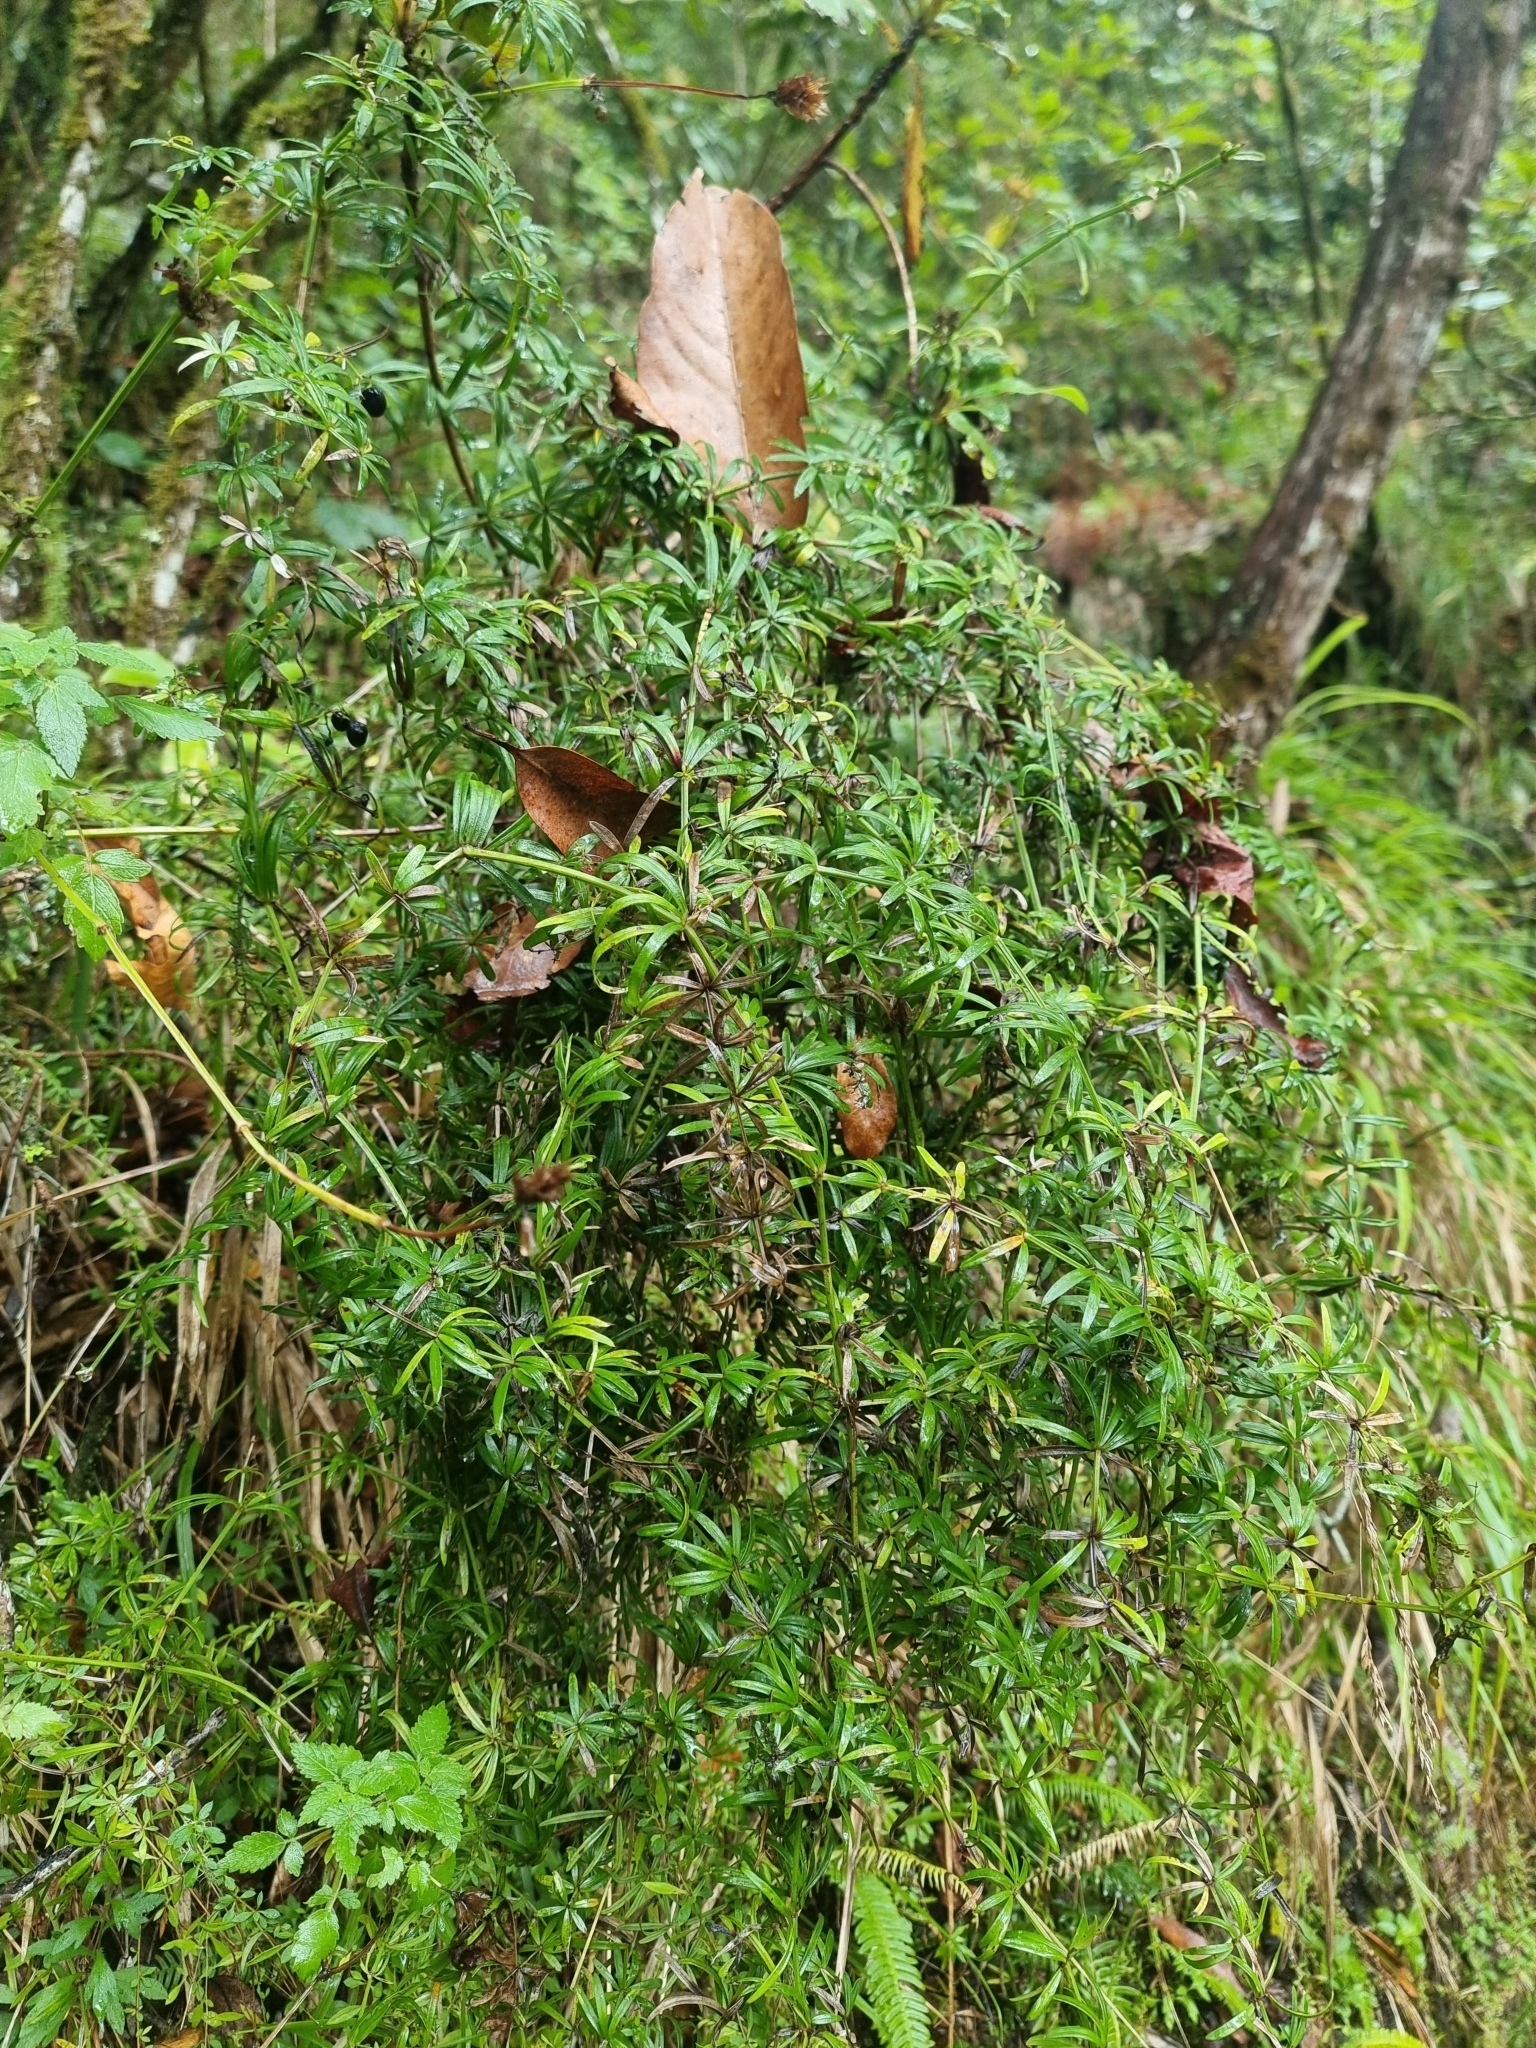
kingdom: Plantae
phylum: Tracheophyta
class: Magnoliopsida
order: Gentianales
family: Rubiaceae
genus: Rubia
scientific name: Rubia occidens
